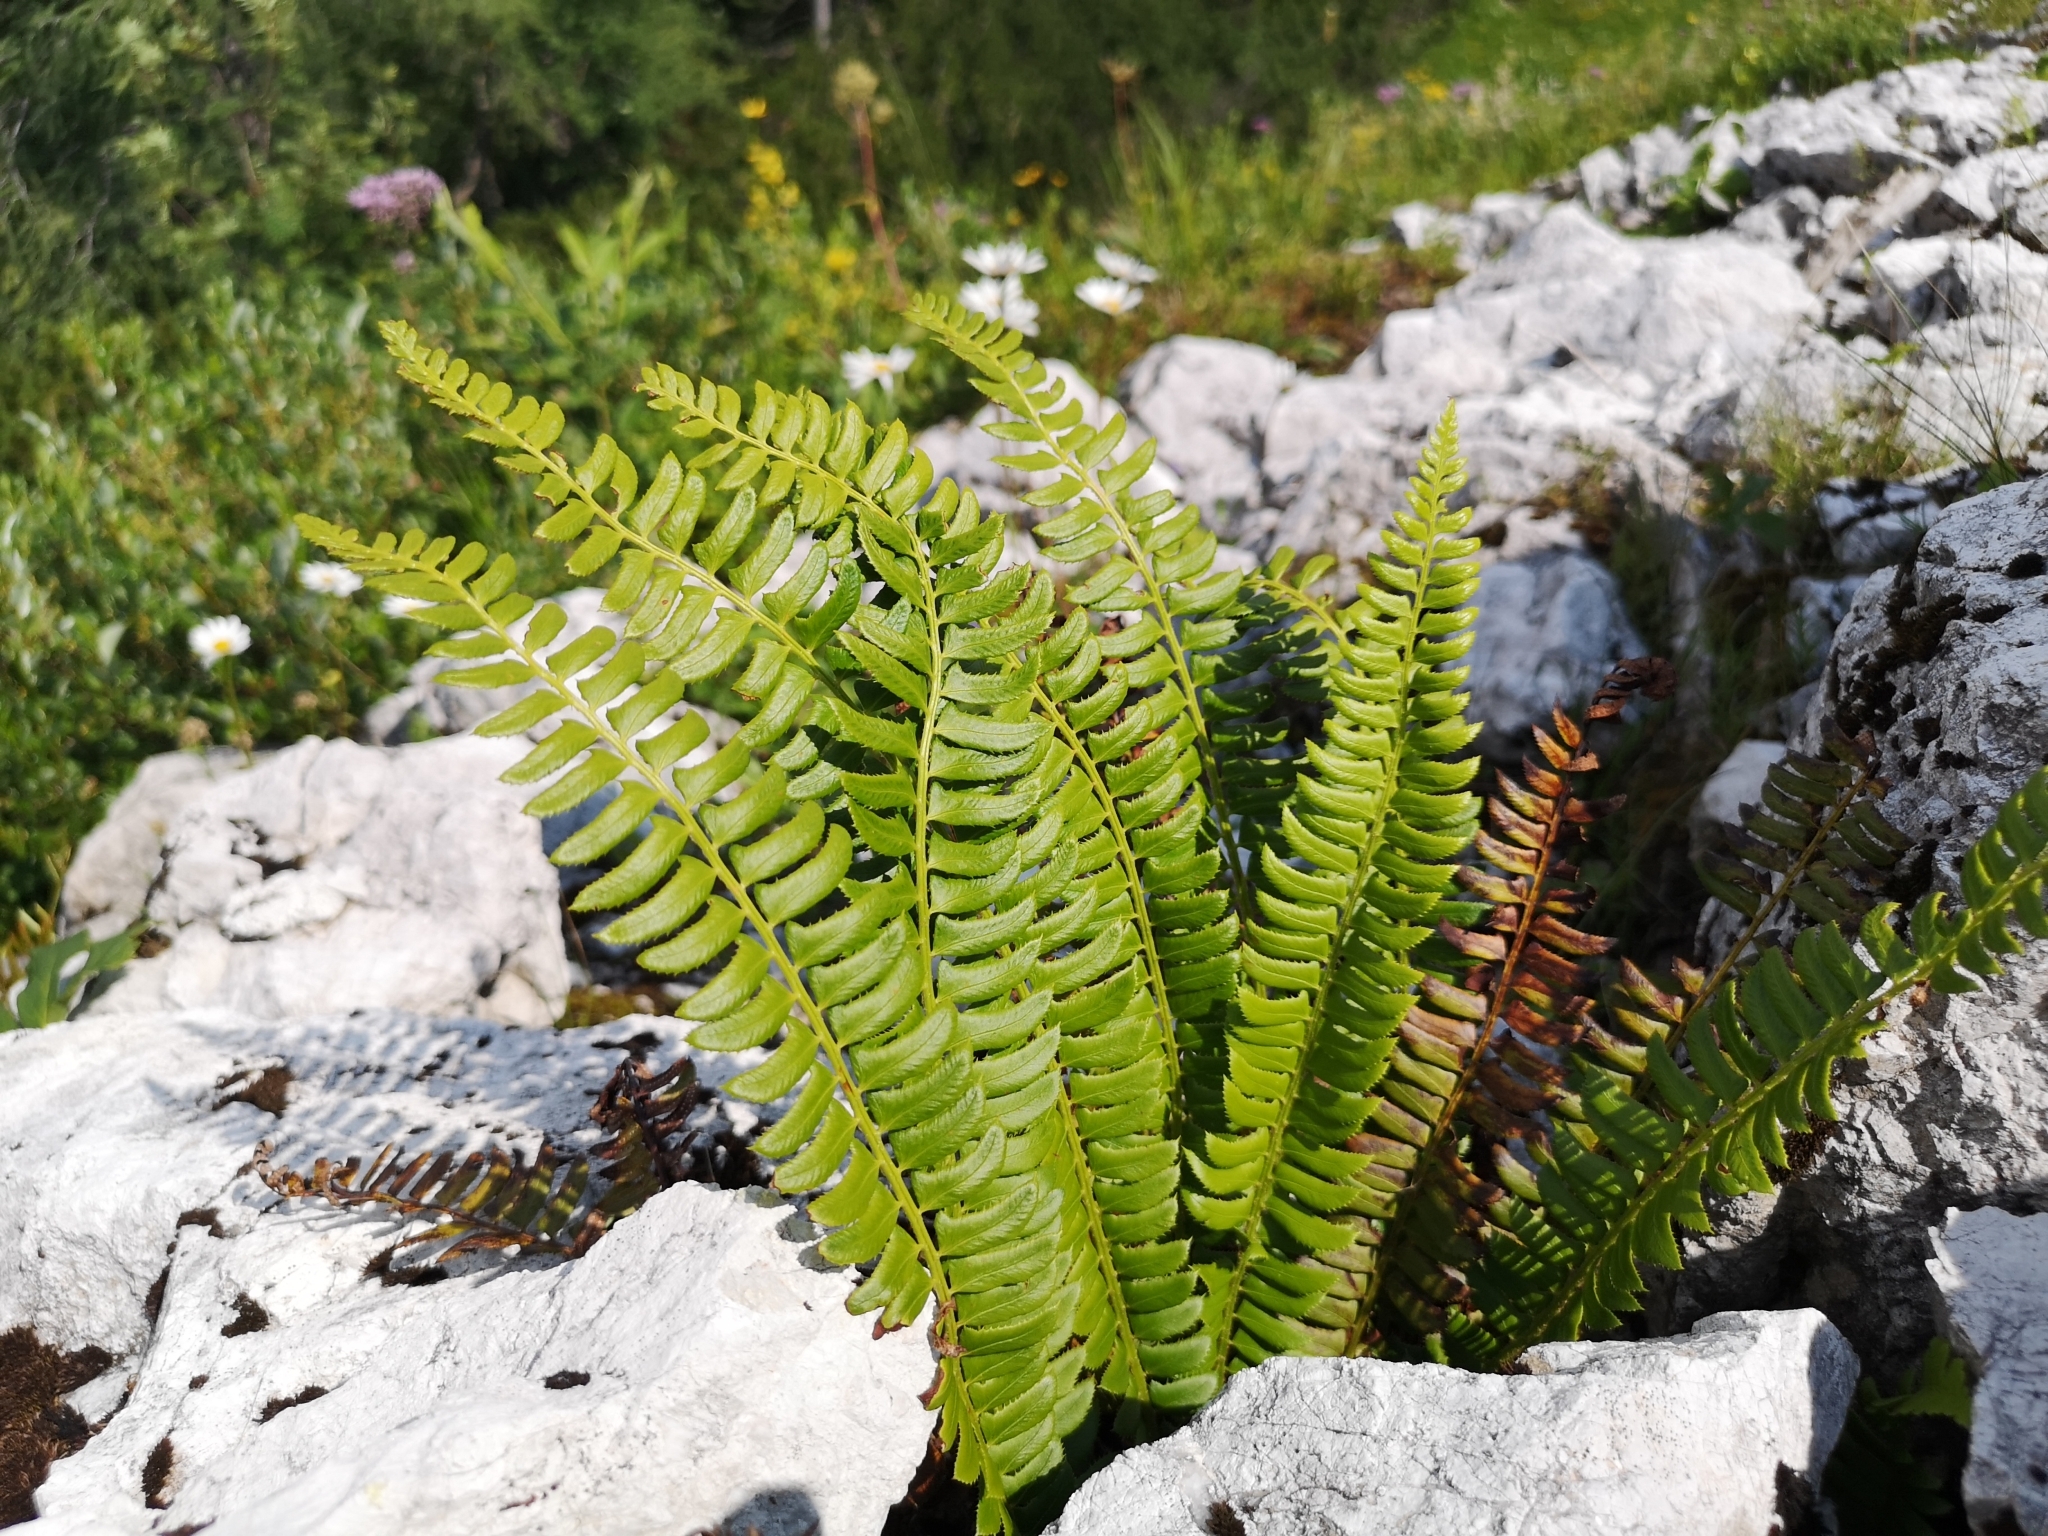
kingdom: Plantae
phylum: Tracheophyta
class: Polypodiopsida
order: Polypodiales
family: Dryopteridaceae
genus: Polystichum
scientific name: Polystichum lonchitis
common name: Holly fern
